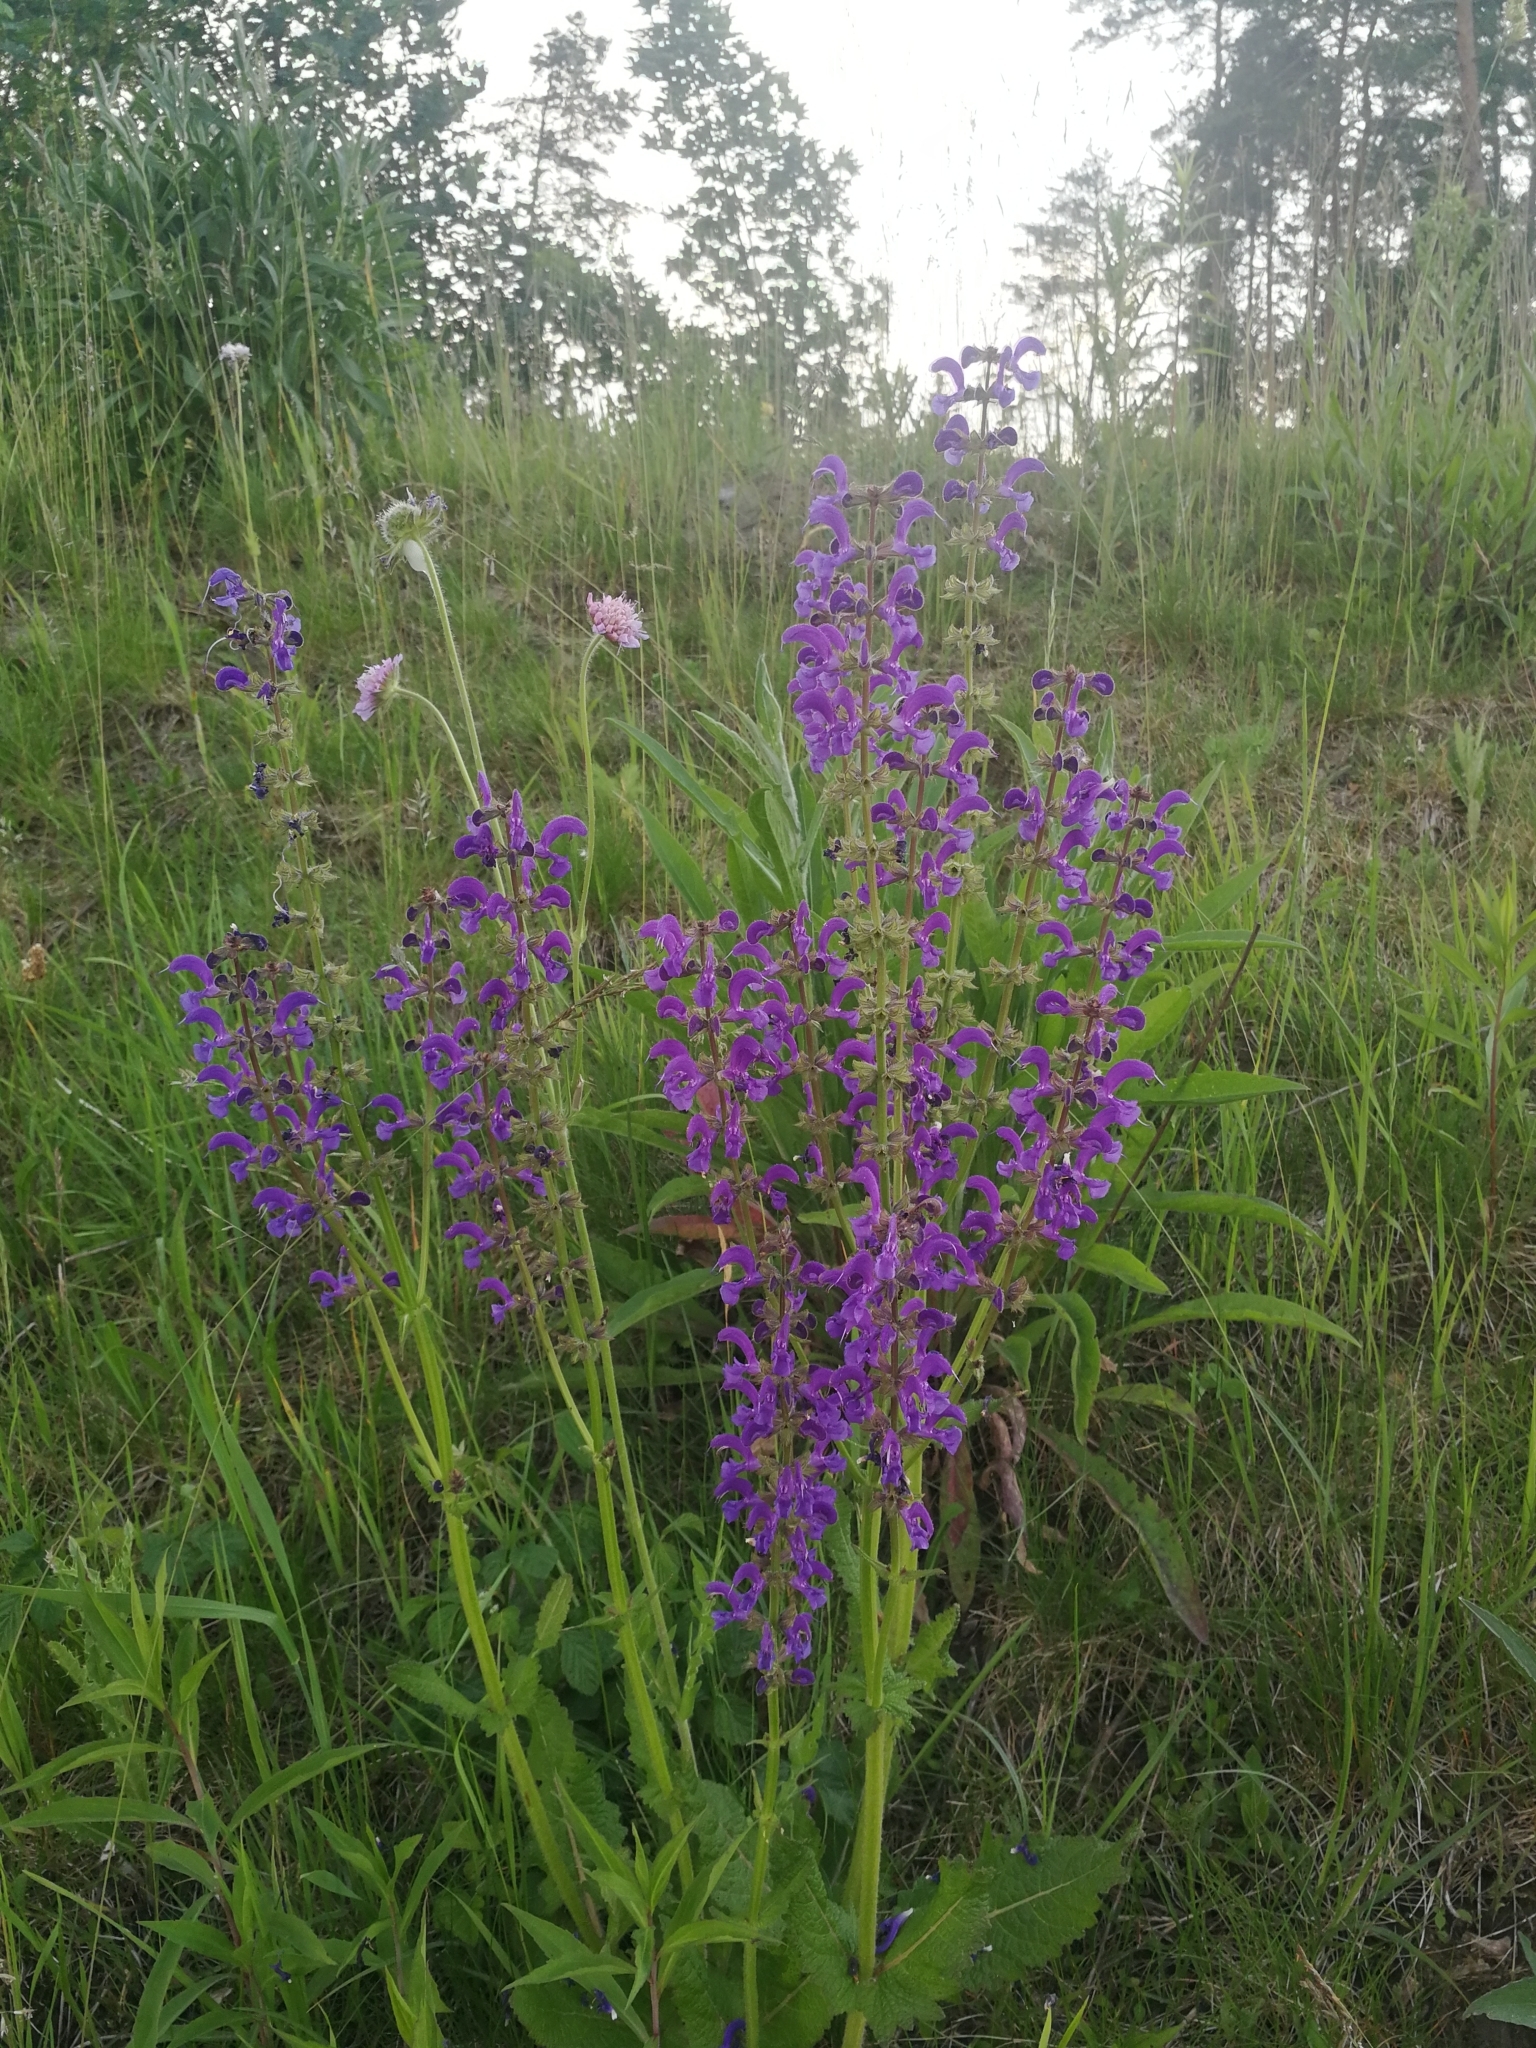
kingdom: Plantae
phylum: Tracheophyta
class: Magnoliopsida
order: Lamiales
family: Lamiaceae
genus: Salvia
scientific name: Salvia pratensis
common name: Meadow sage
